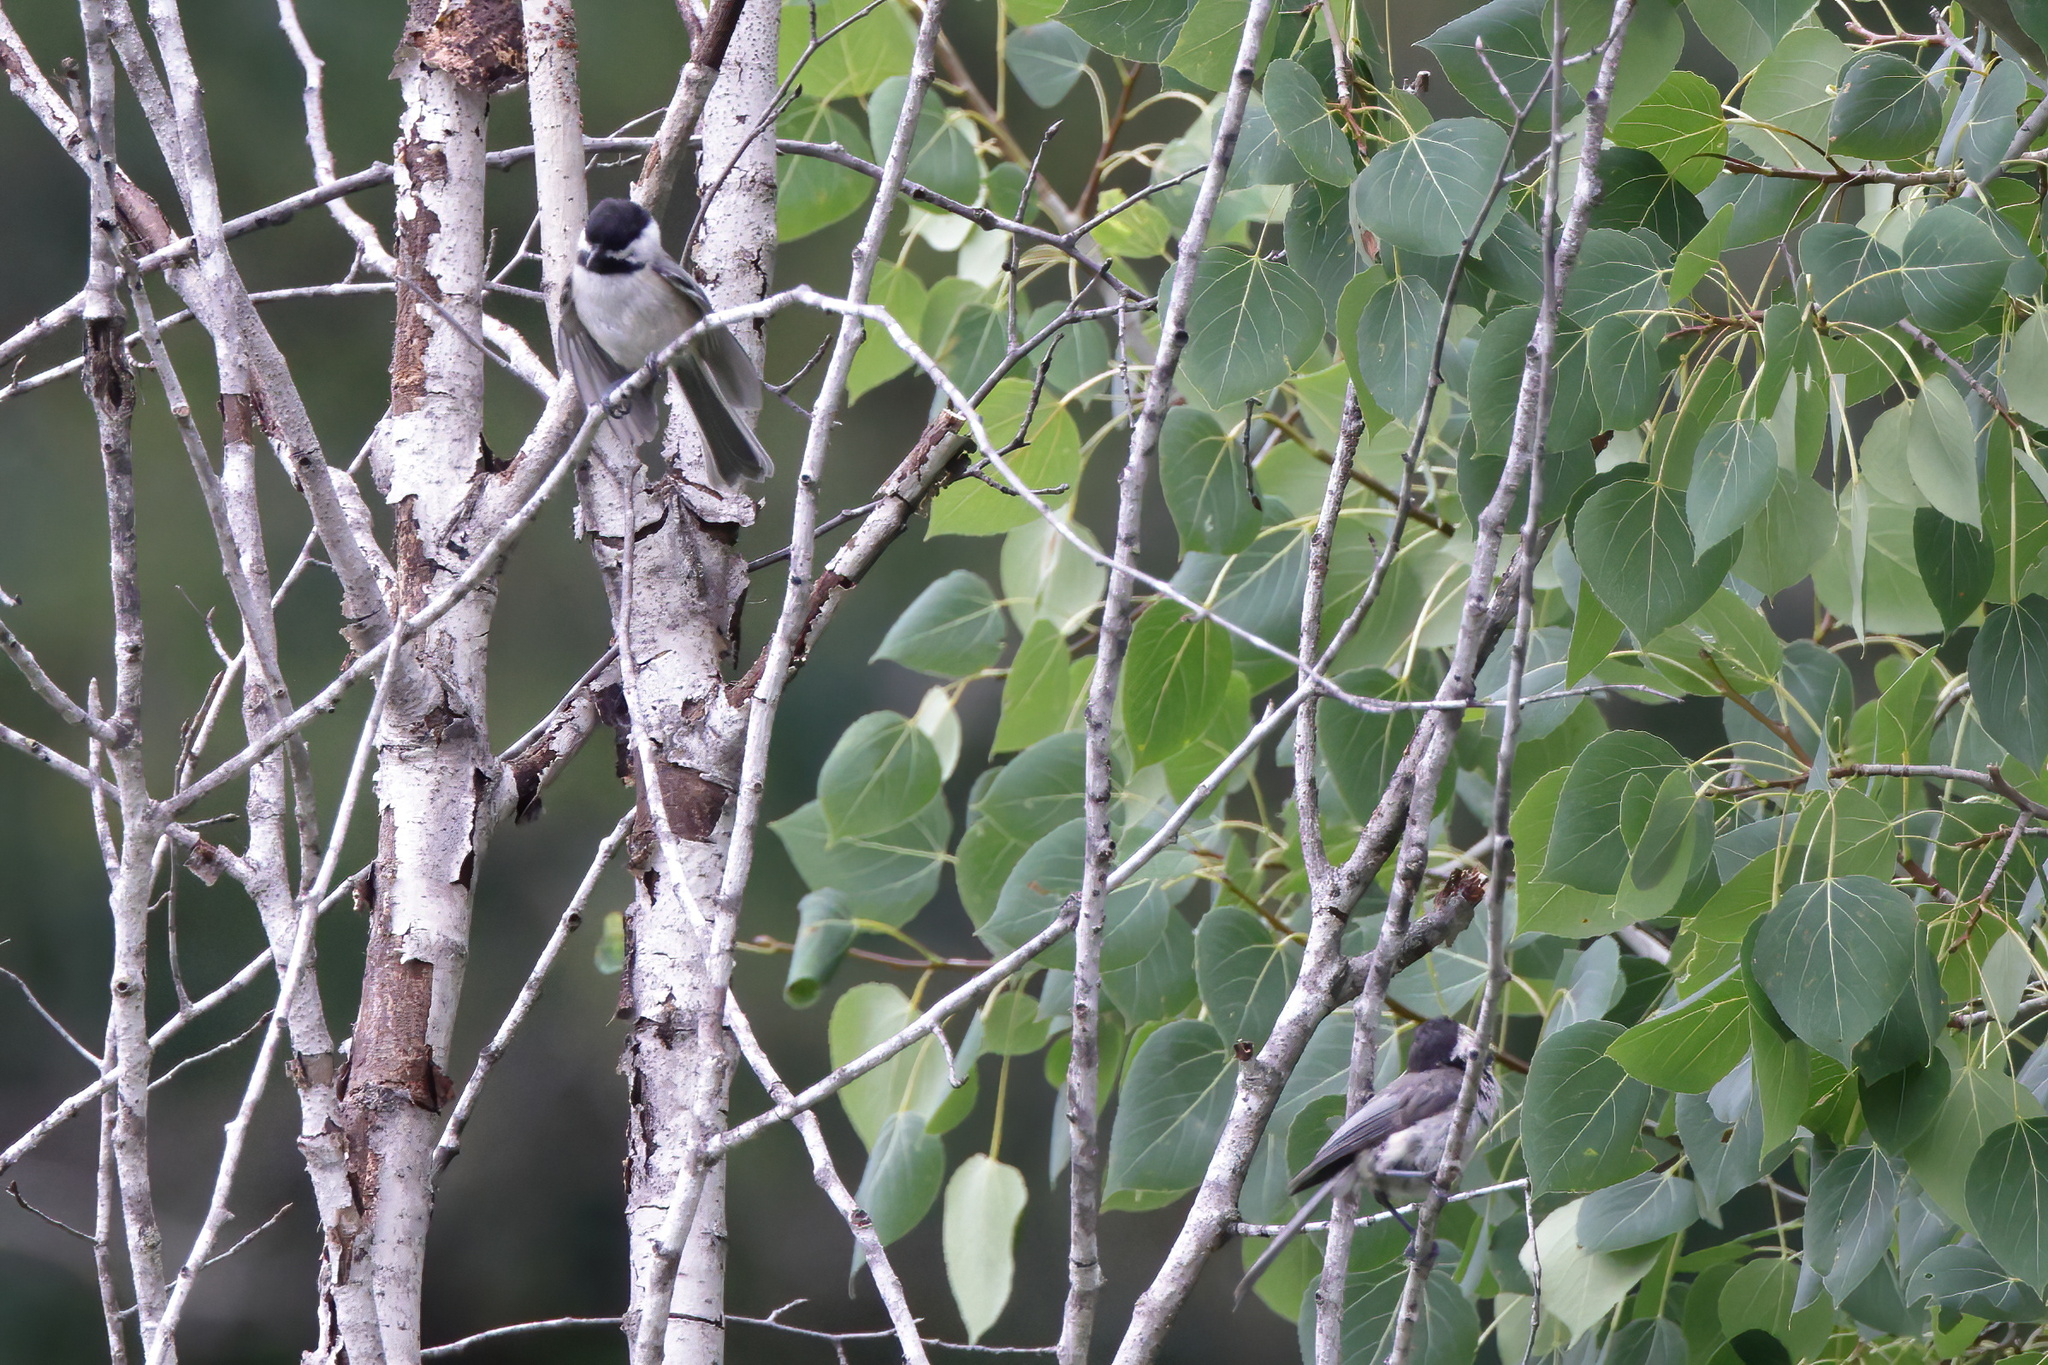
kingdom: Animalia
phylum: Chordata
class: Aves
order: Passeriformes
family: Paridae
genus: Poecile
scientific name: Poecile atricapillus
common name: Black-capped chickadee
